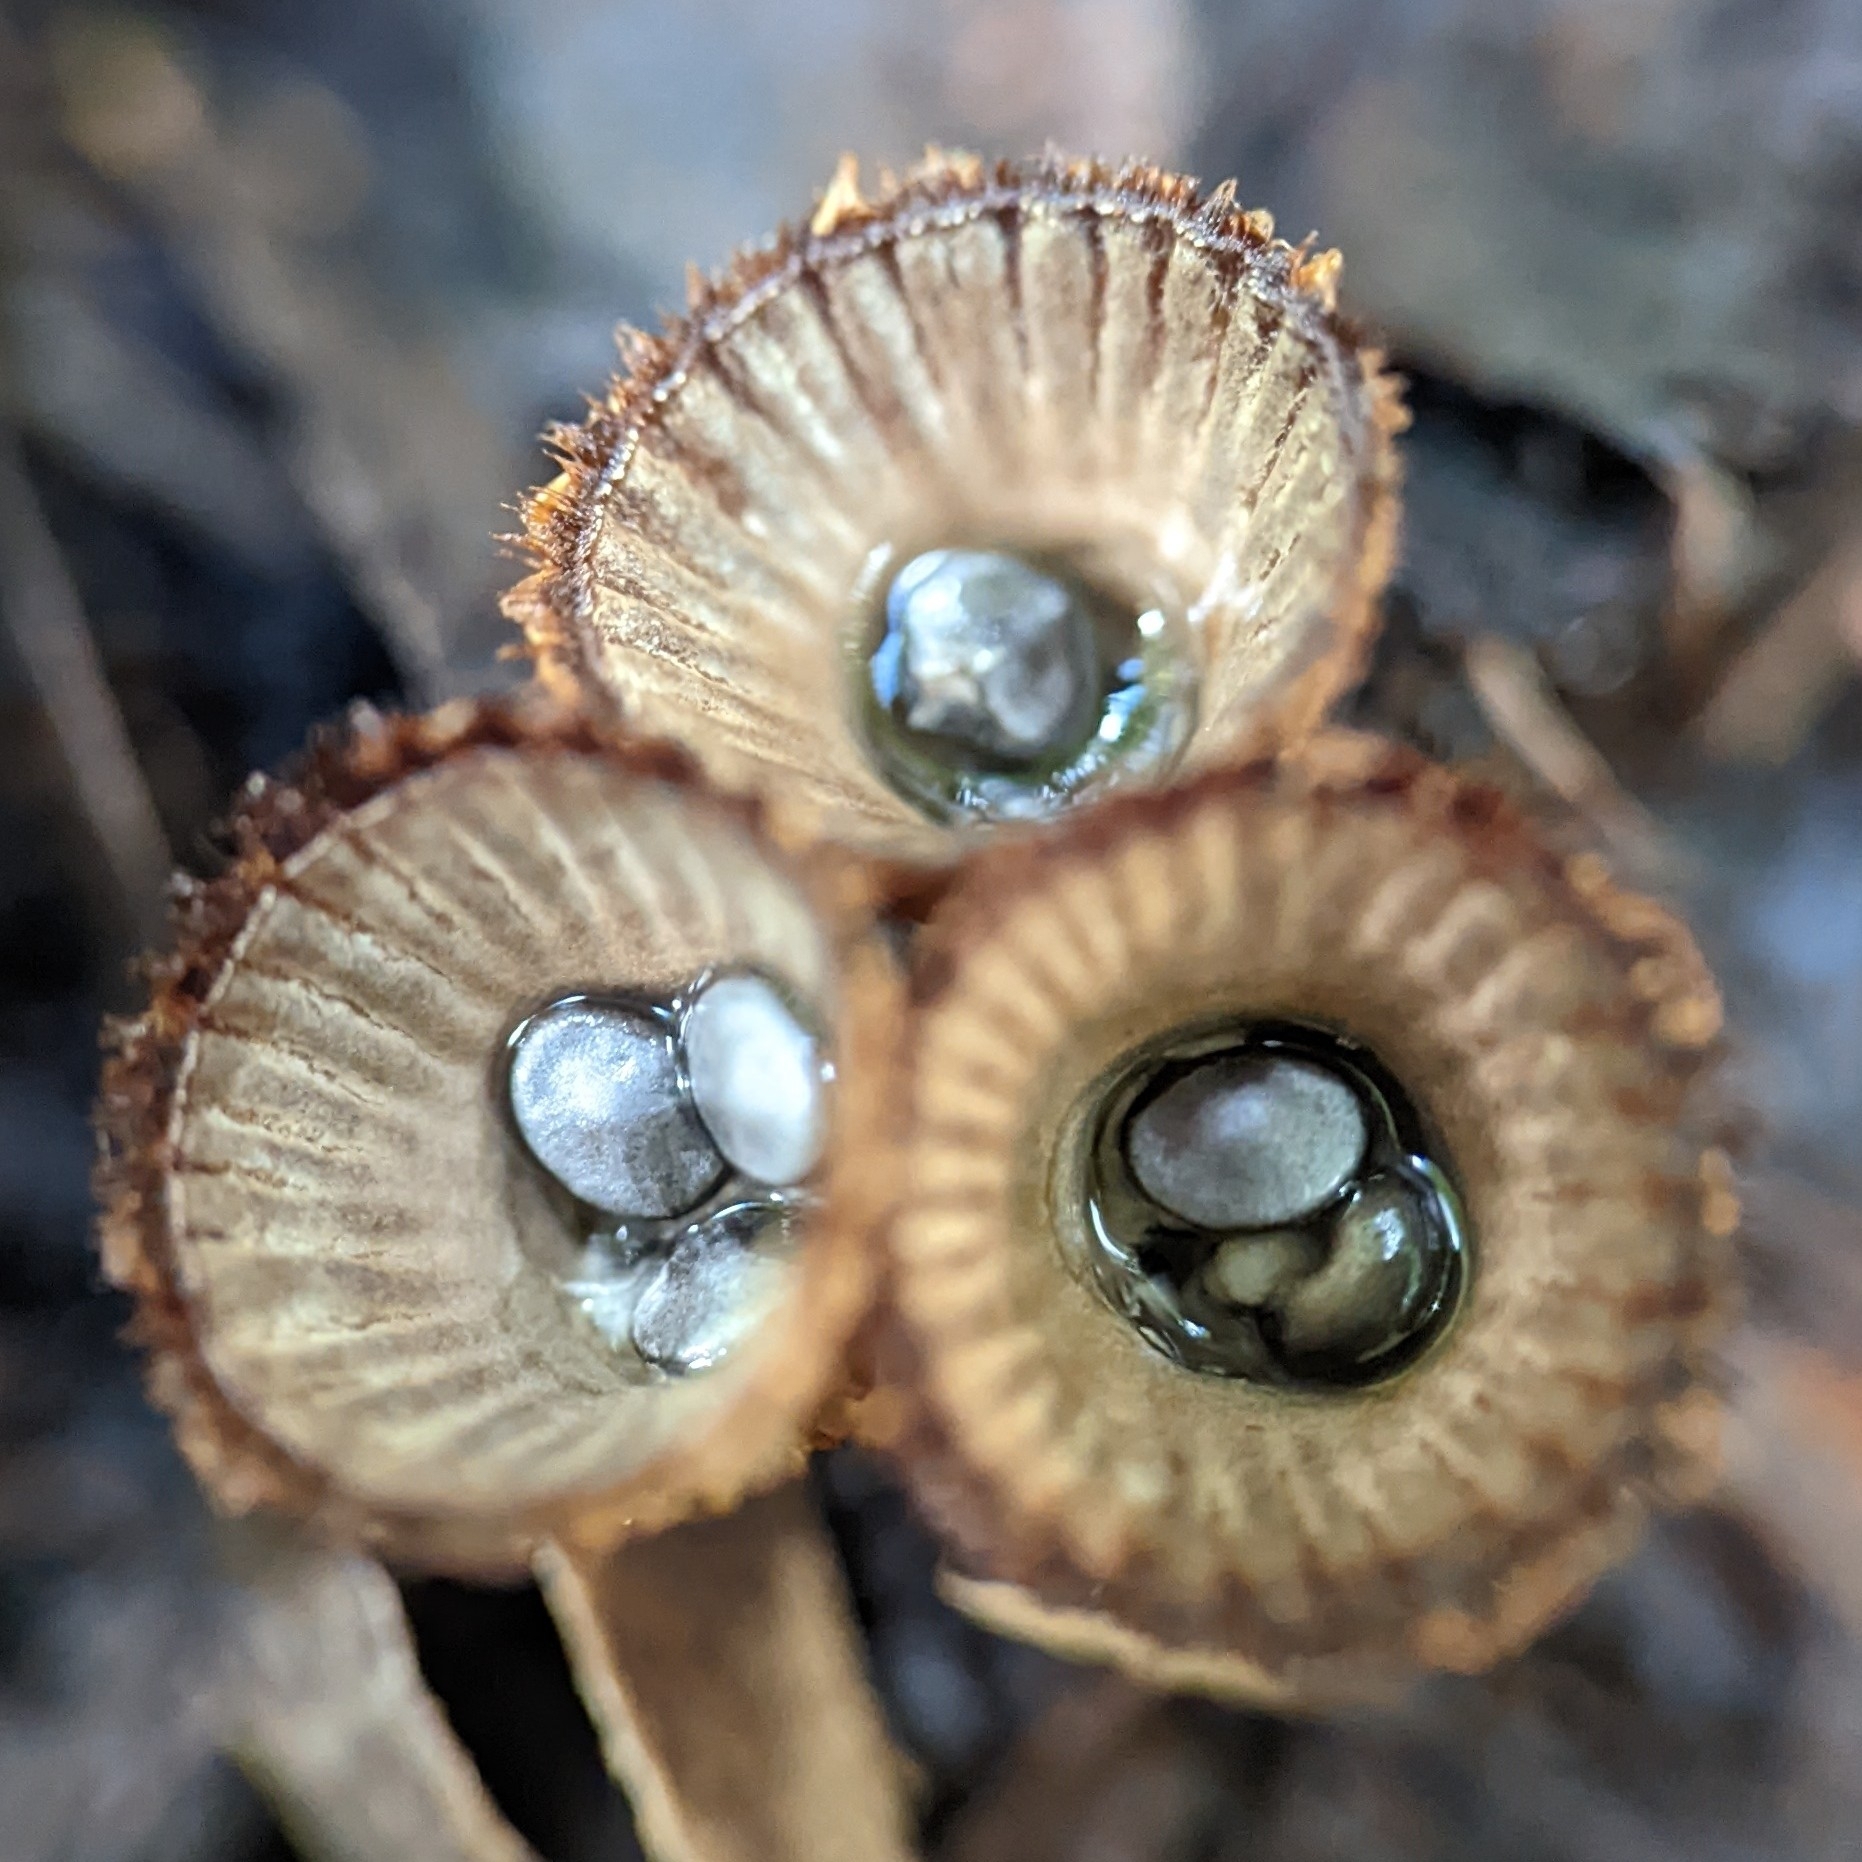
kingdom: Fungi
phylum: Basidiomycota
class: Agaricomycetes
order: Agaricales
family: Agaricaceae
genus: Cyathus
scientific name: Cyathus striatus
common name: Fluted bird's nest
